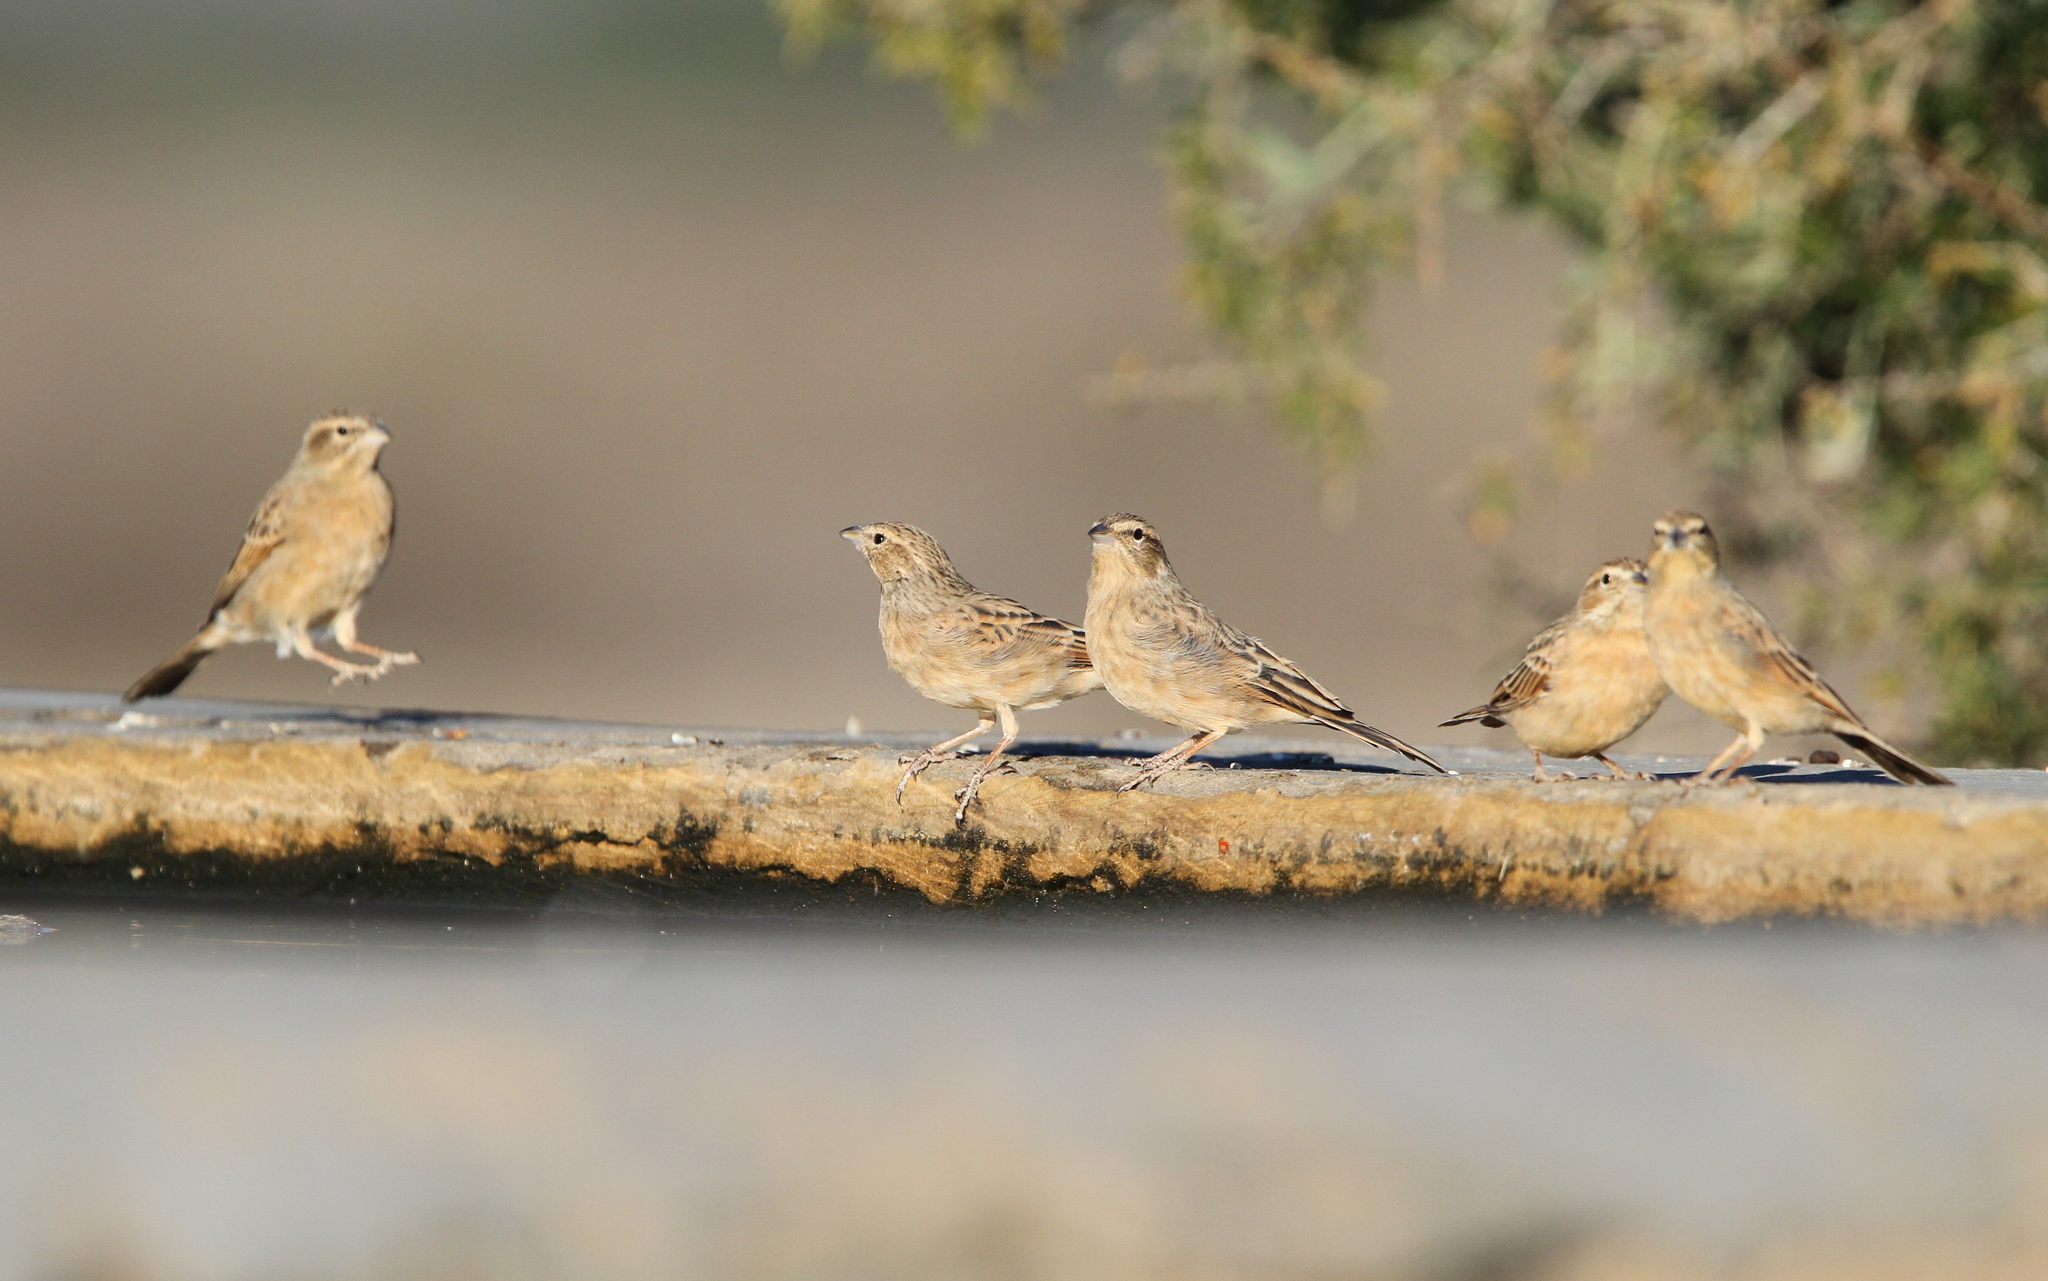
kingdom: Animalia
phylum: Chordata
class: Aves
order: Passeriformes
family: Emberizidae
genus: Emberiza
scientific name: Emberiza impetuani
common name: Lark-like bunting
